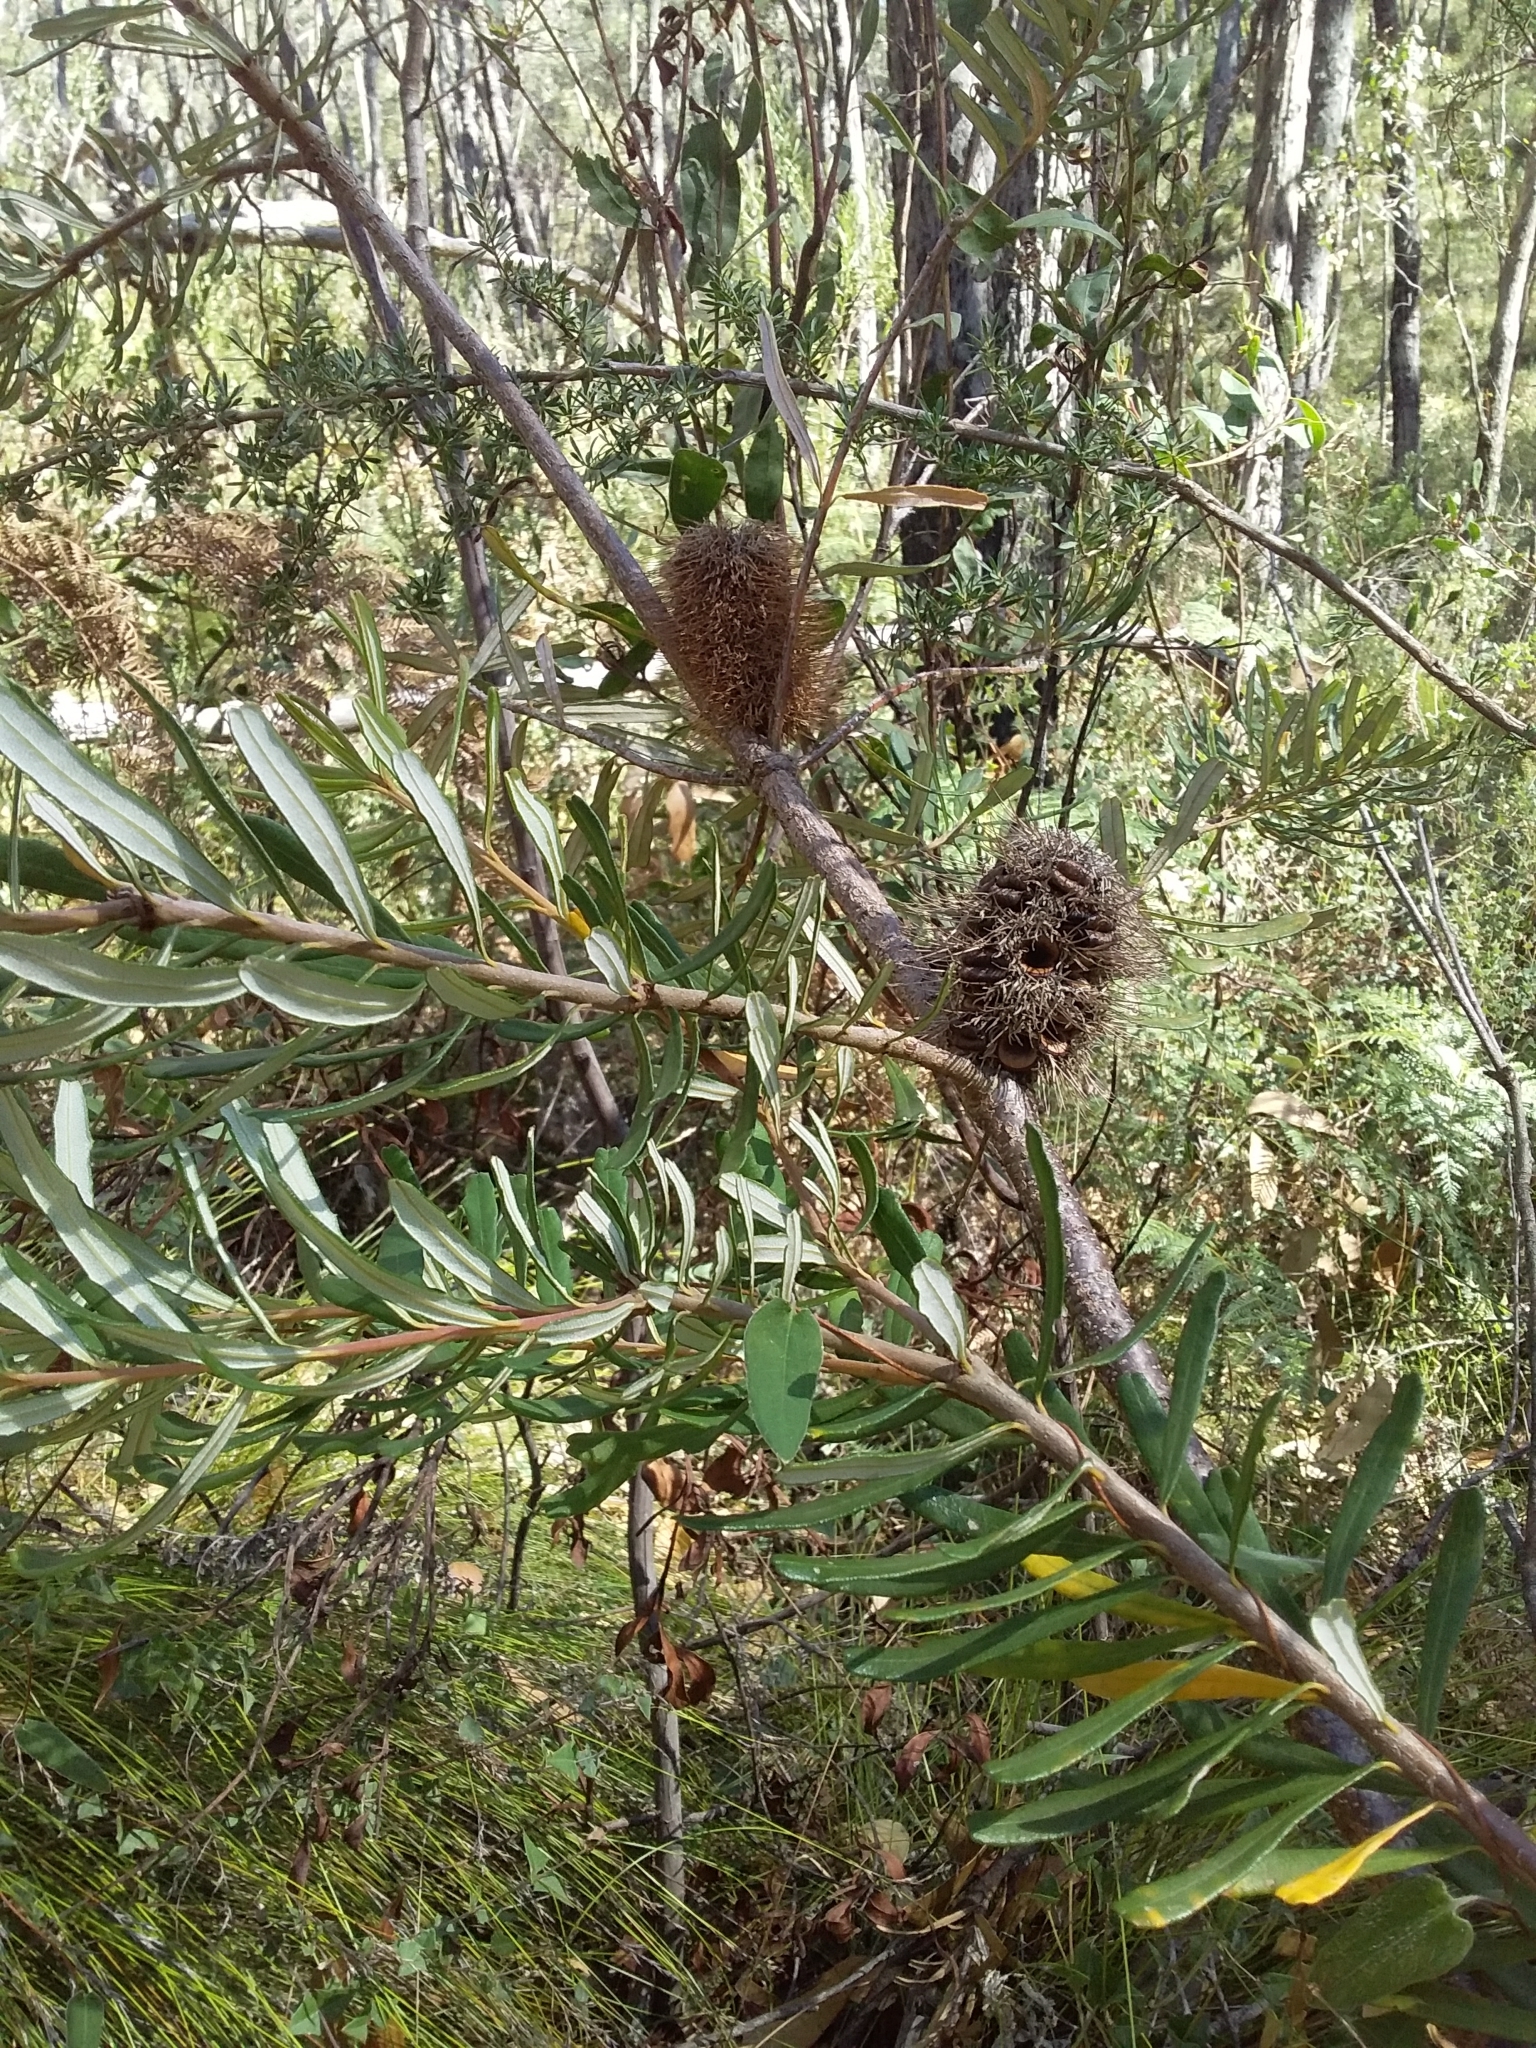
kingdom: Plantae
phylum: Tracheophyta
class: Magnoliopsida
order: Proteales
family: Proteaceae
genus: Banksia
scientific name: Banksia marginata
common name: Silver banksia
